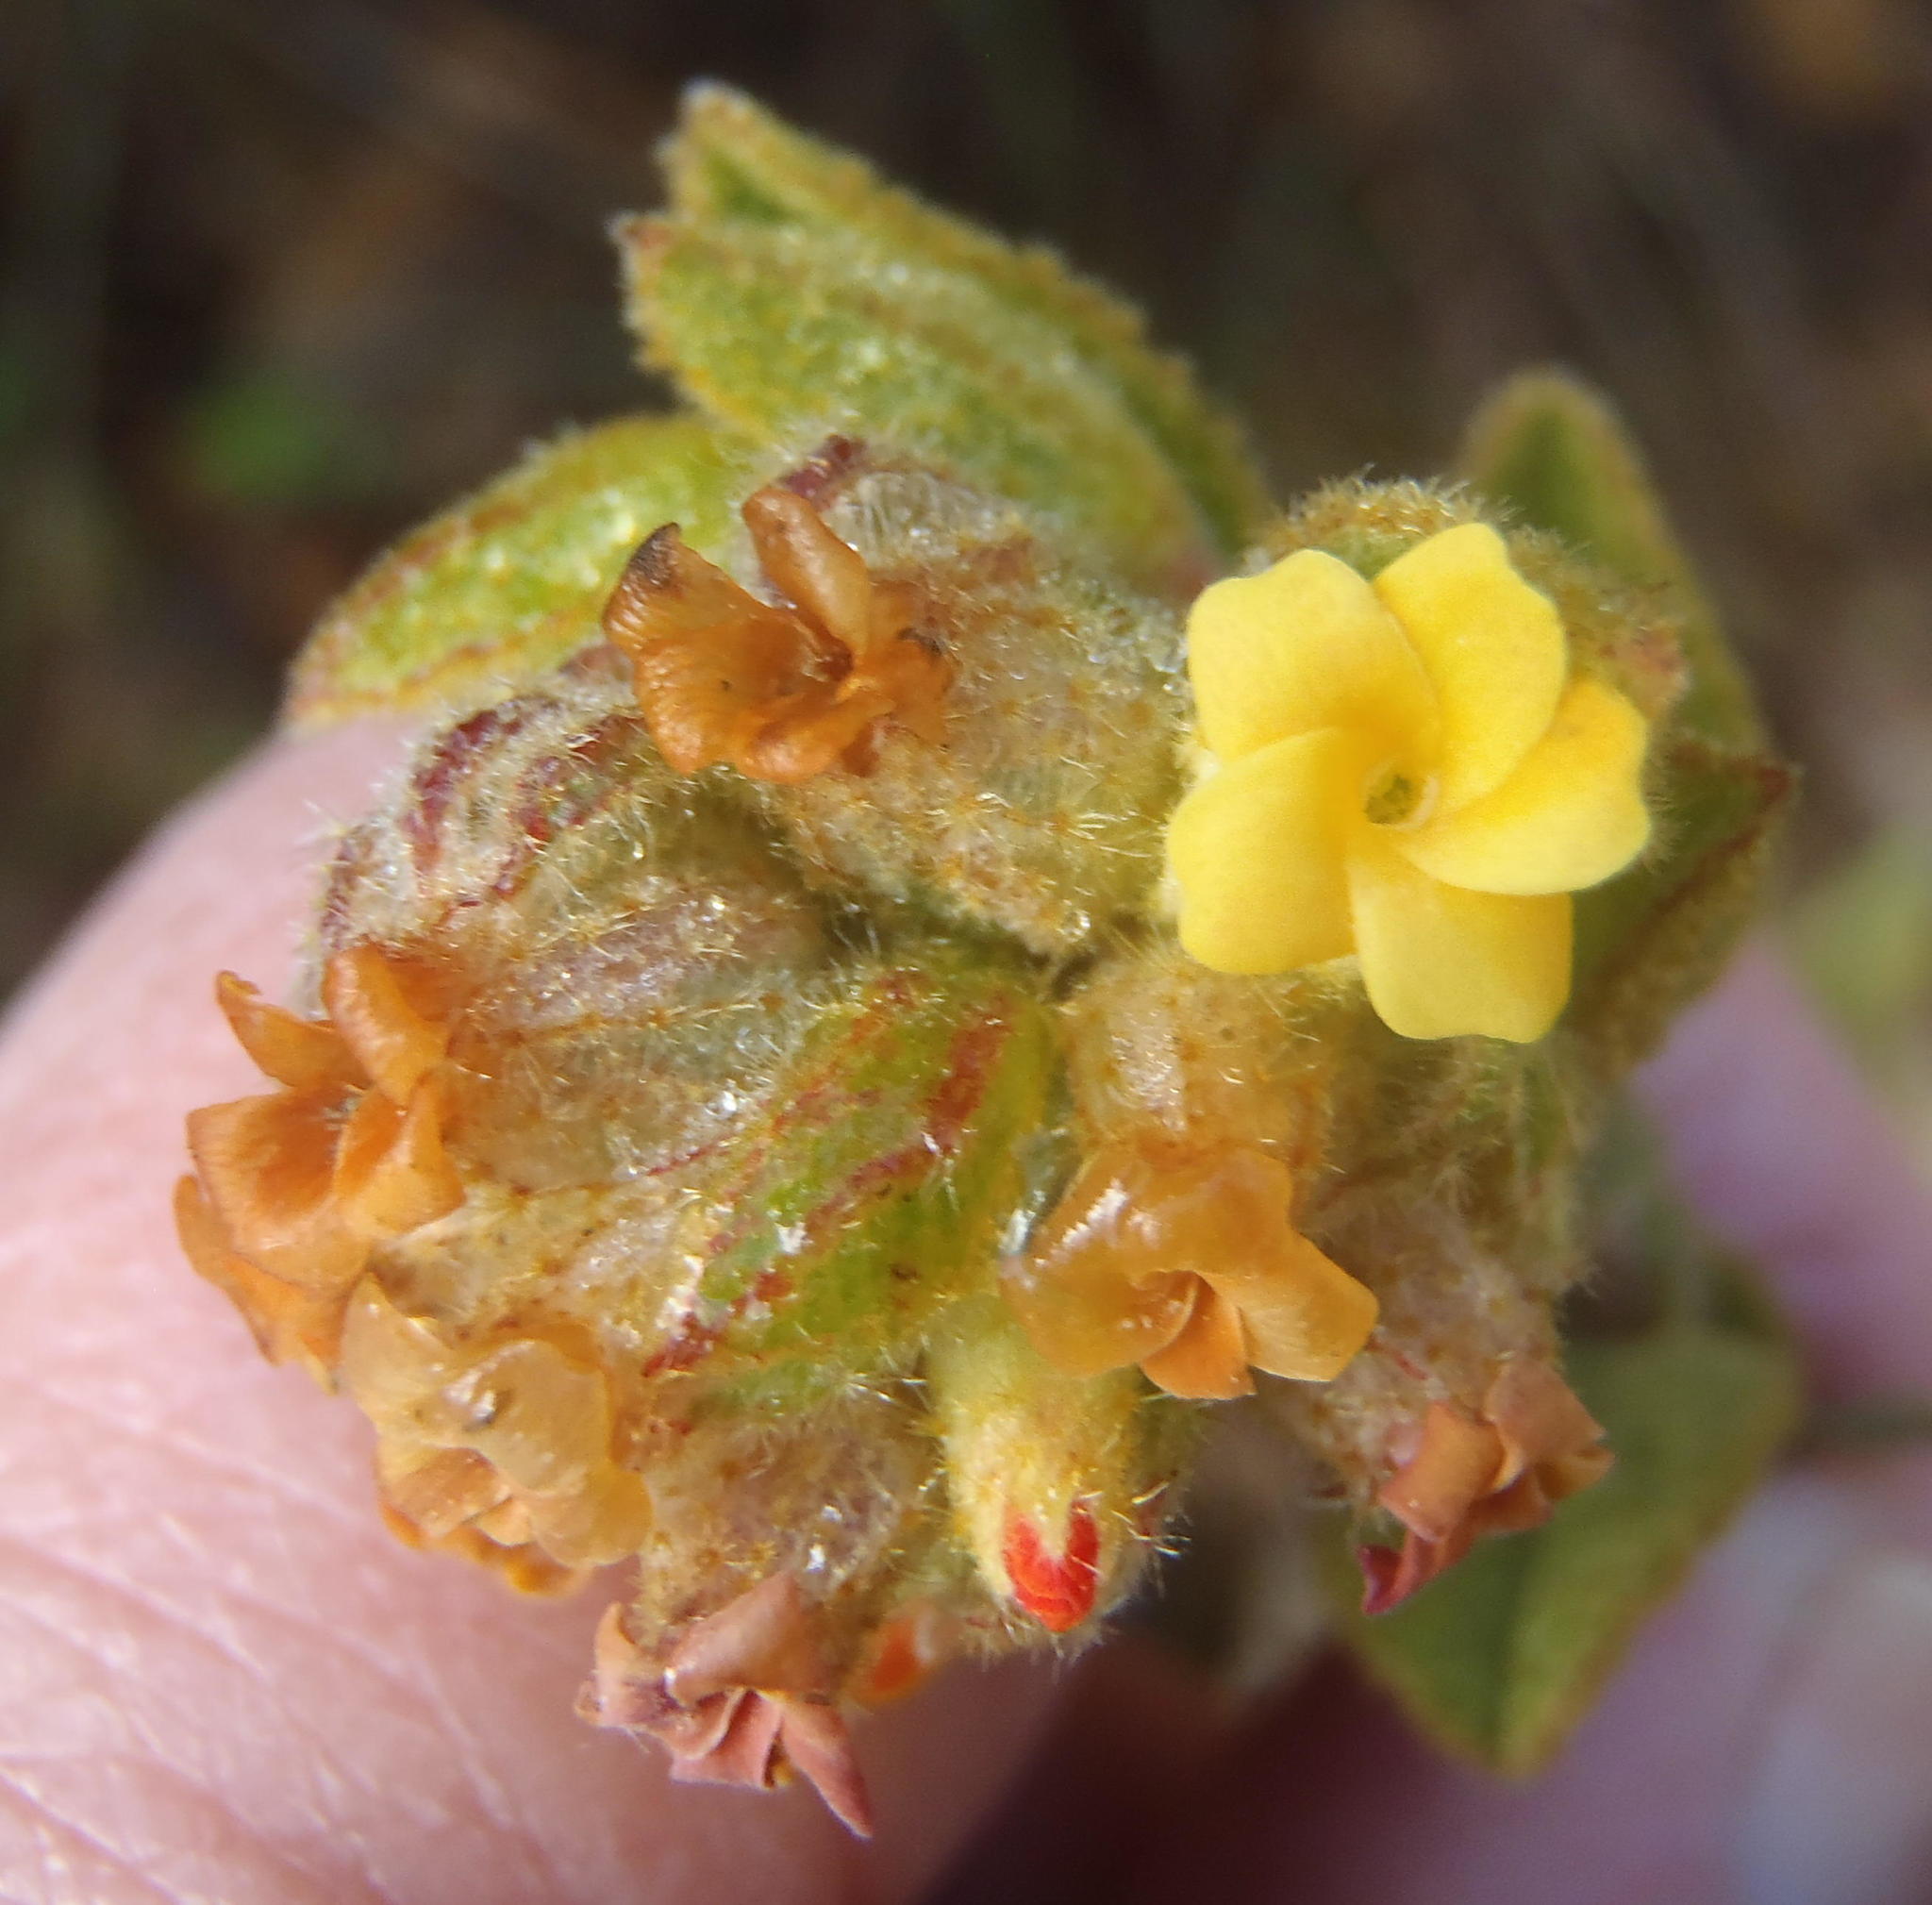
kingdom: Plantae
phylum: Tracheophyta
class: Magnoliopsida
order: Malvales
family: Malvaceae
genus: Hermannia
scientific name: Hermannia salviifolia
